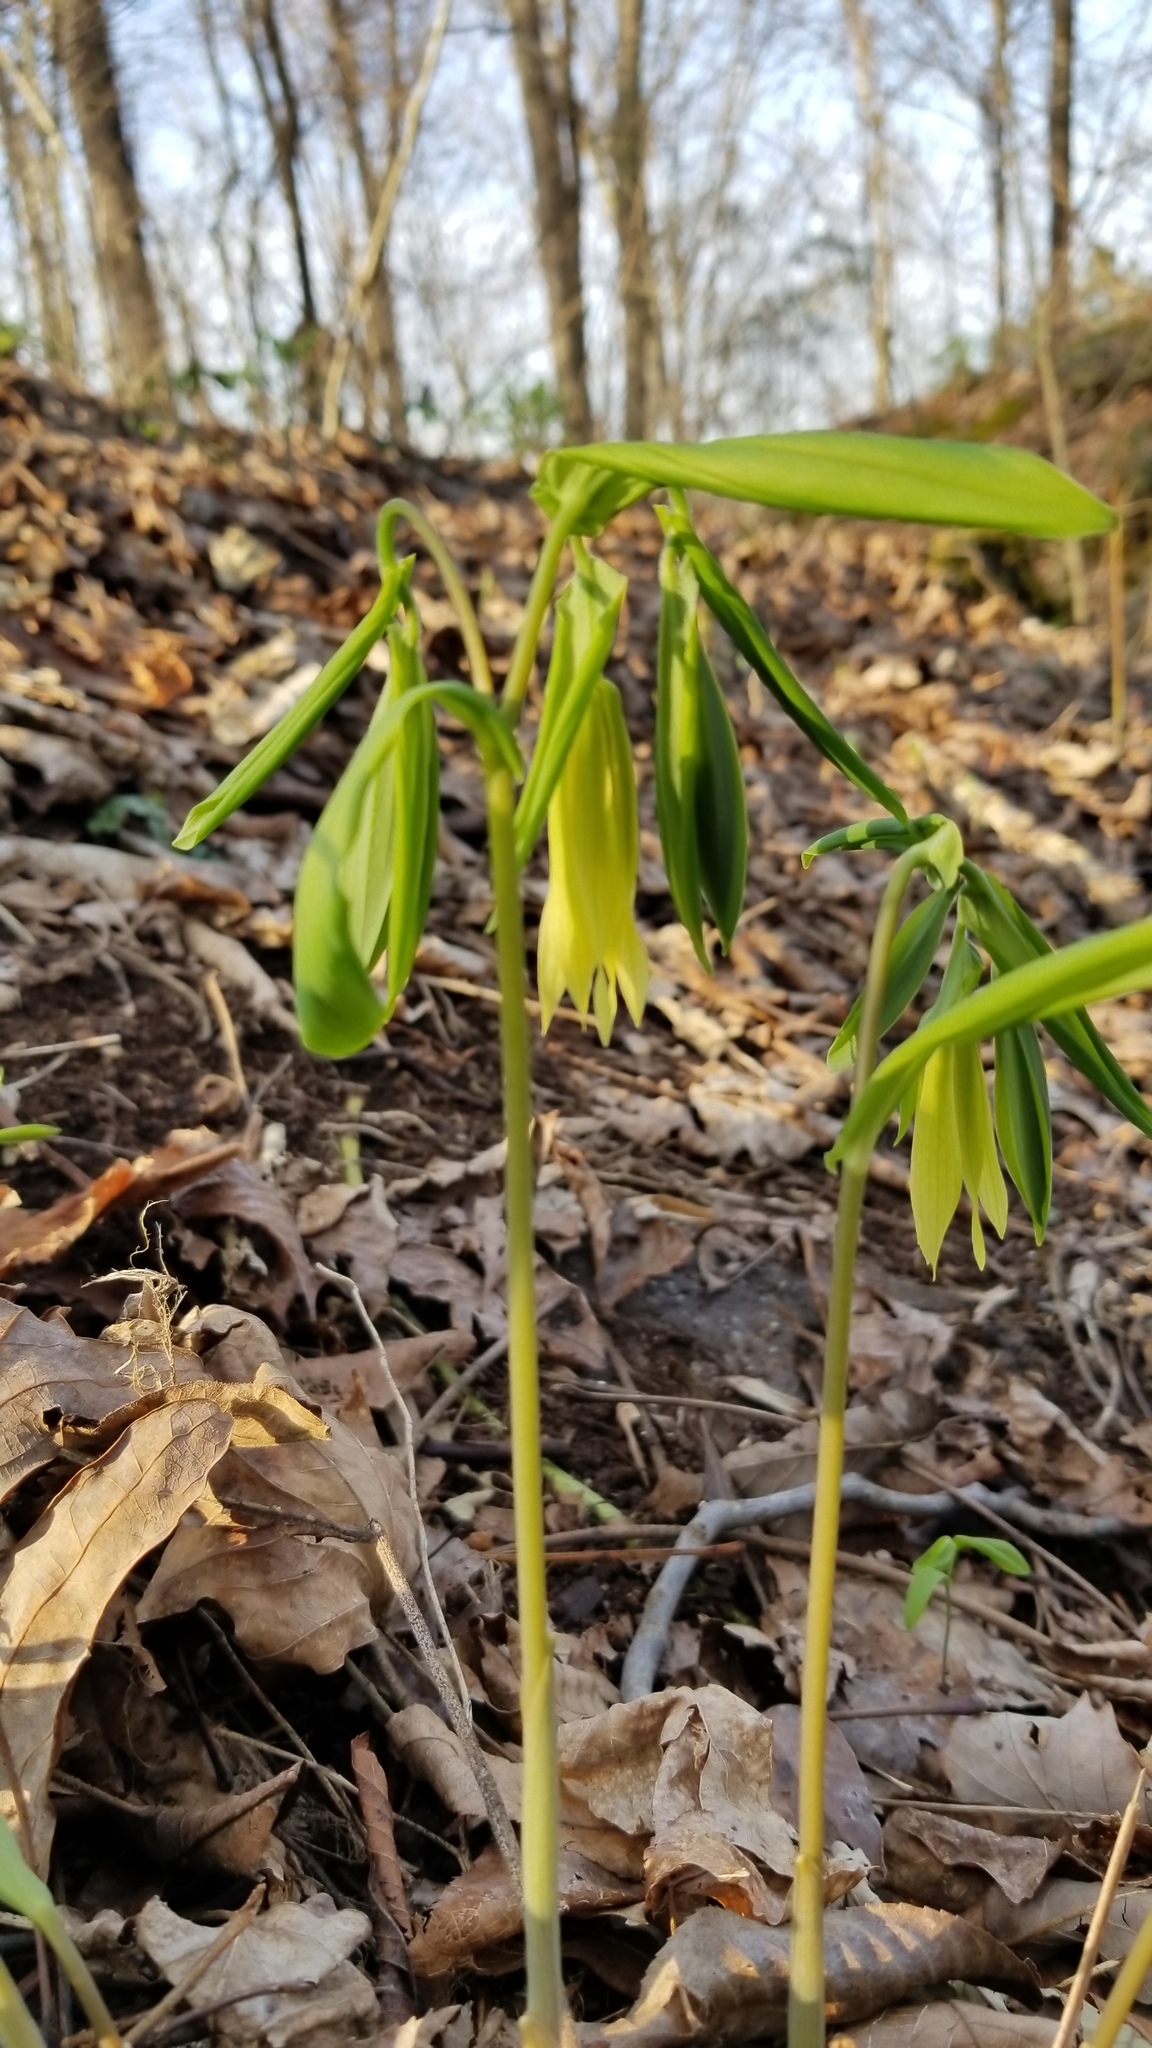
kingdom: Plantae
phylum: Tracheophyta
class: Liliopsida
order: Liliales
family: Colchicaceae
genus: Uvularia
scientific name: Uvularia grandiflora
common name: Bellwort
